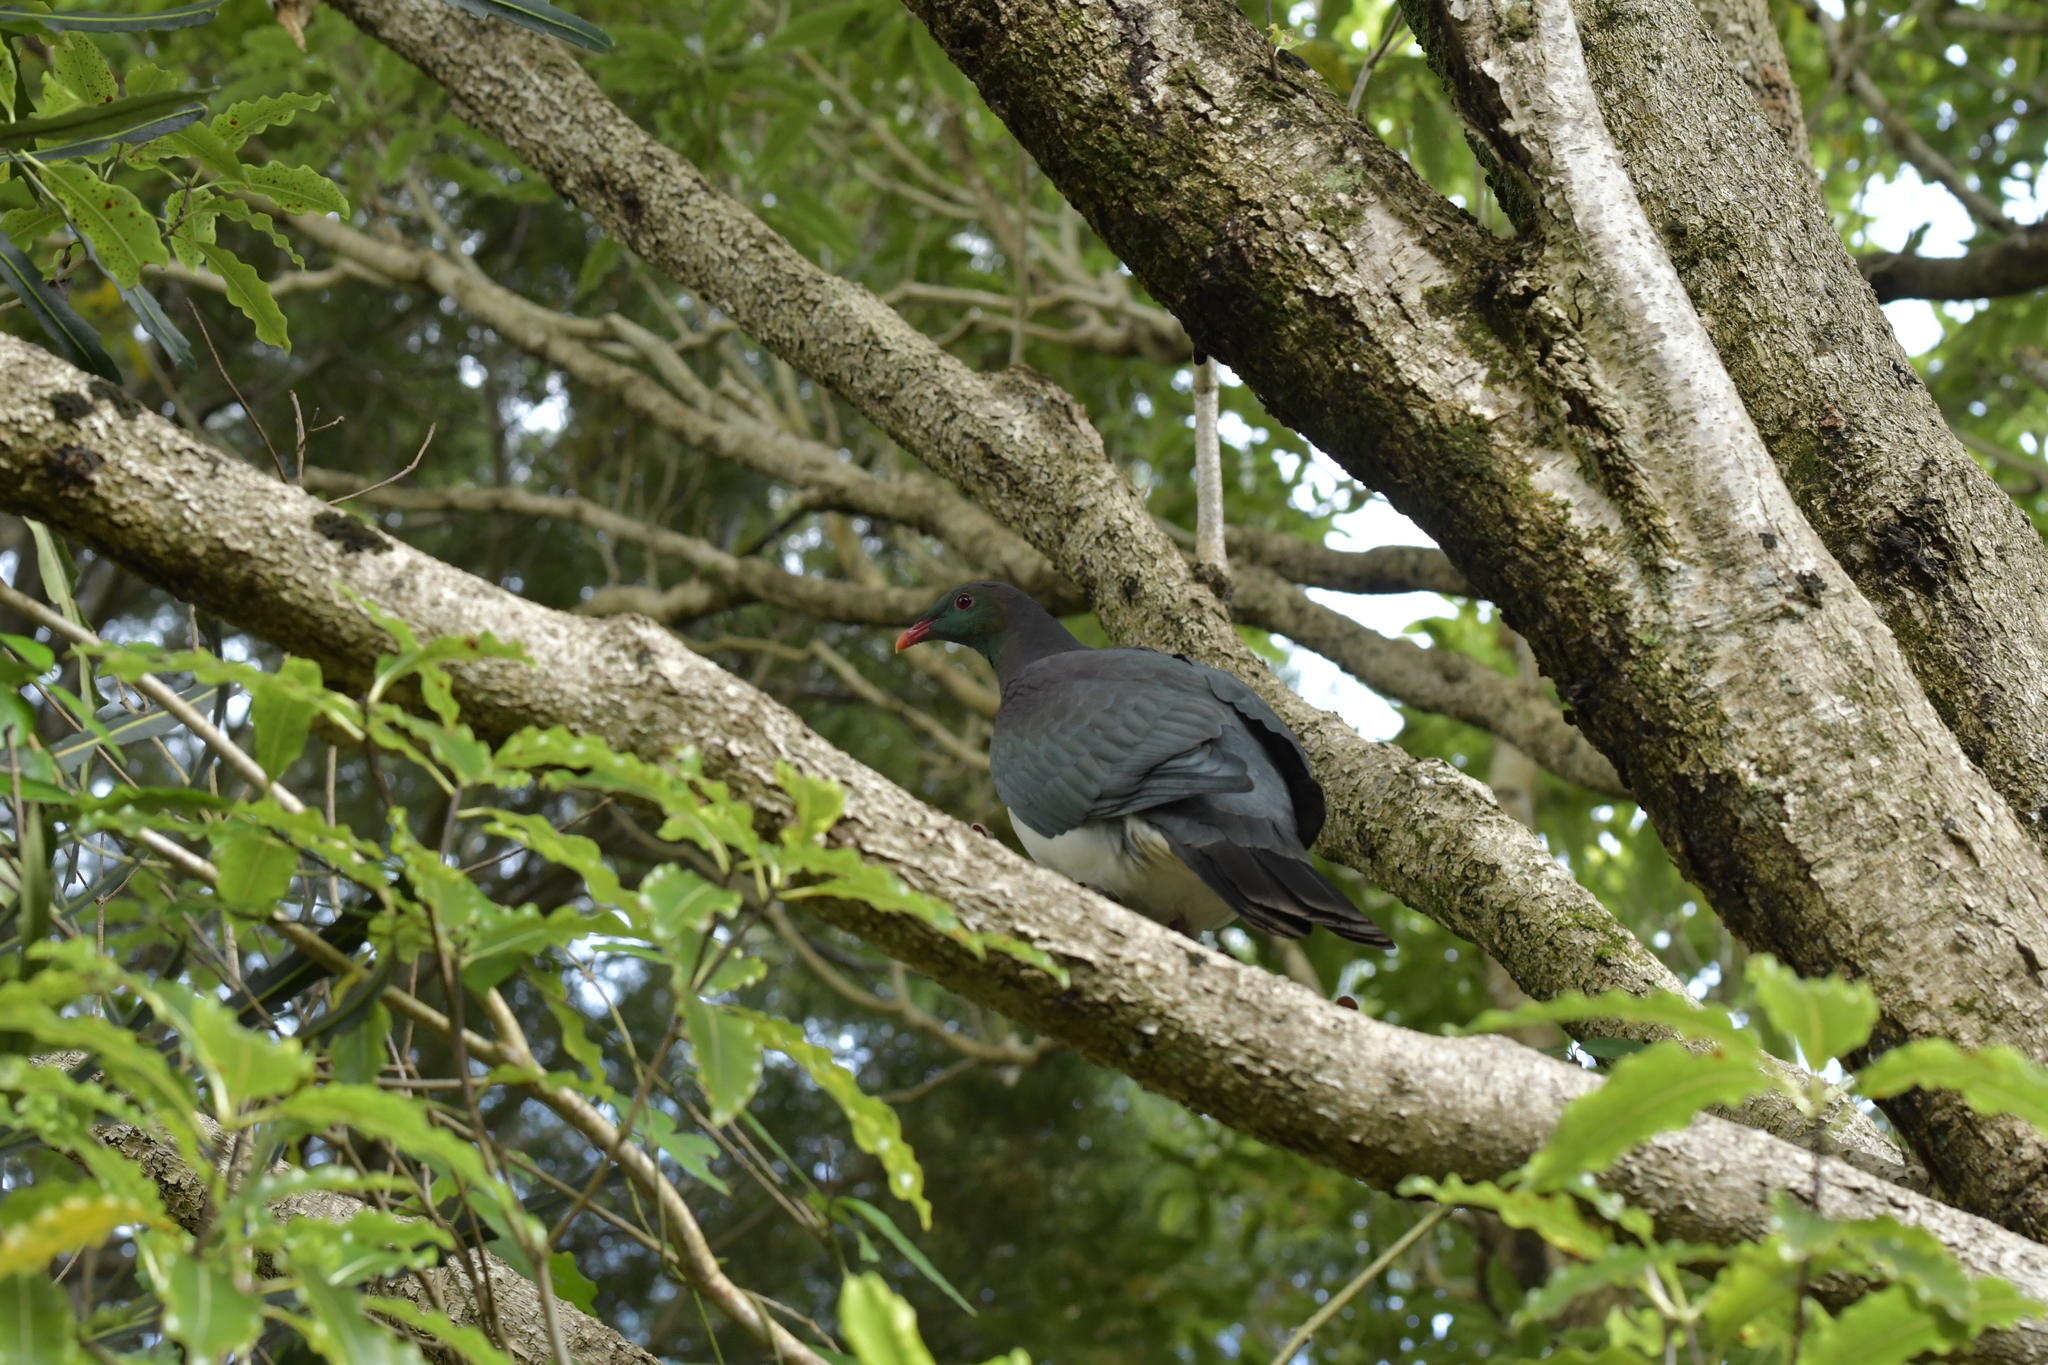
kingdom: Animalia
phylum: Chordata
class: Aves
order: Columbiformes
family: Columbidae
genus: Hemiphaga
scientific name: Hemiphaga novaeseelandiae
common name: New zealand pigeon
